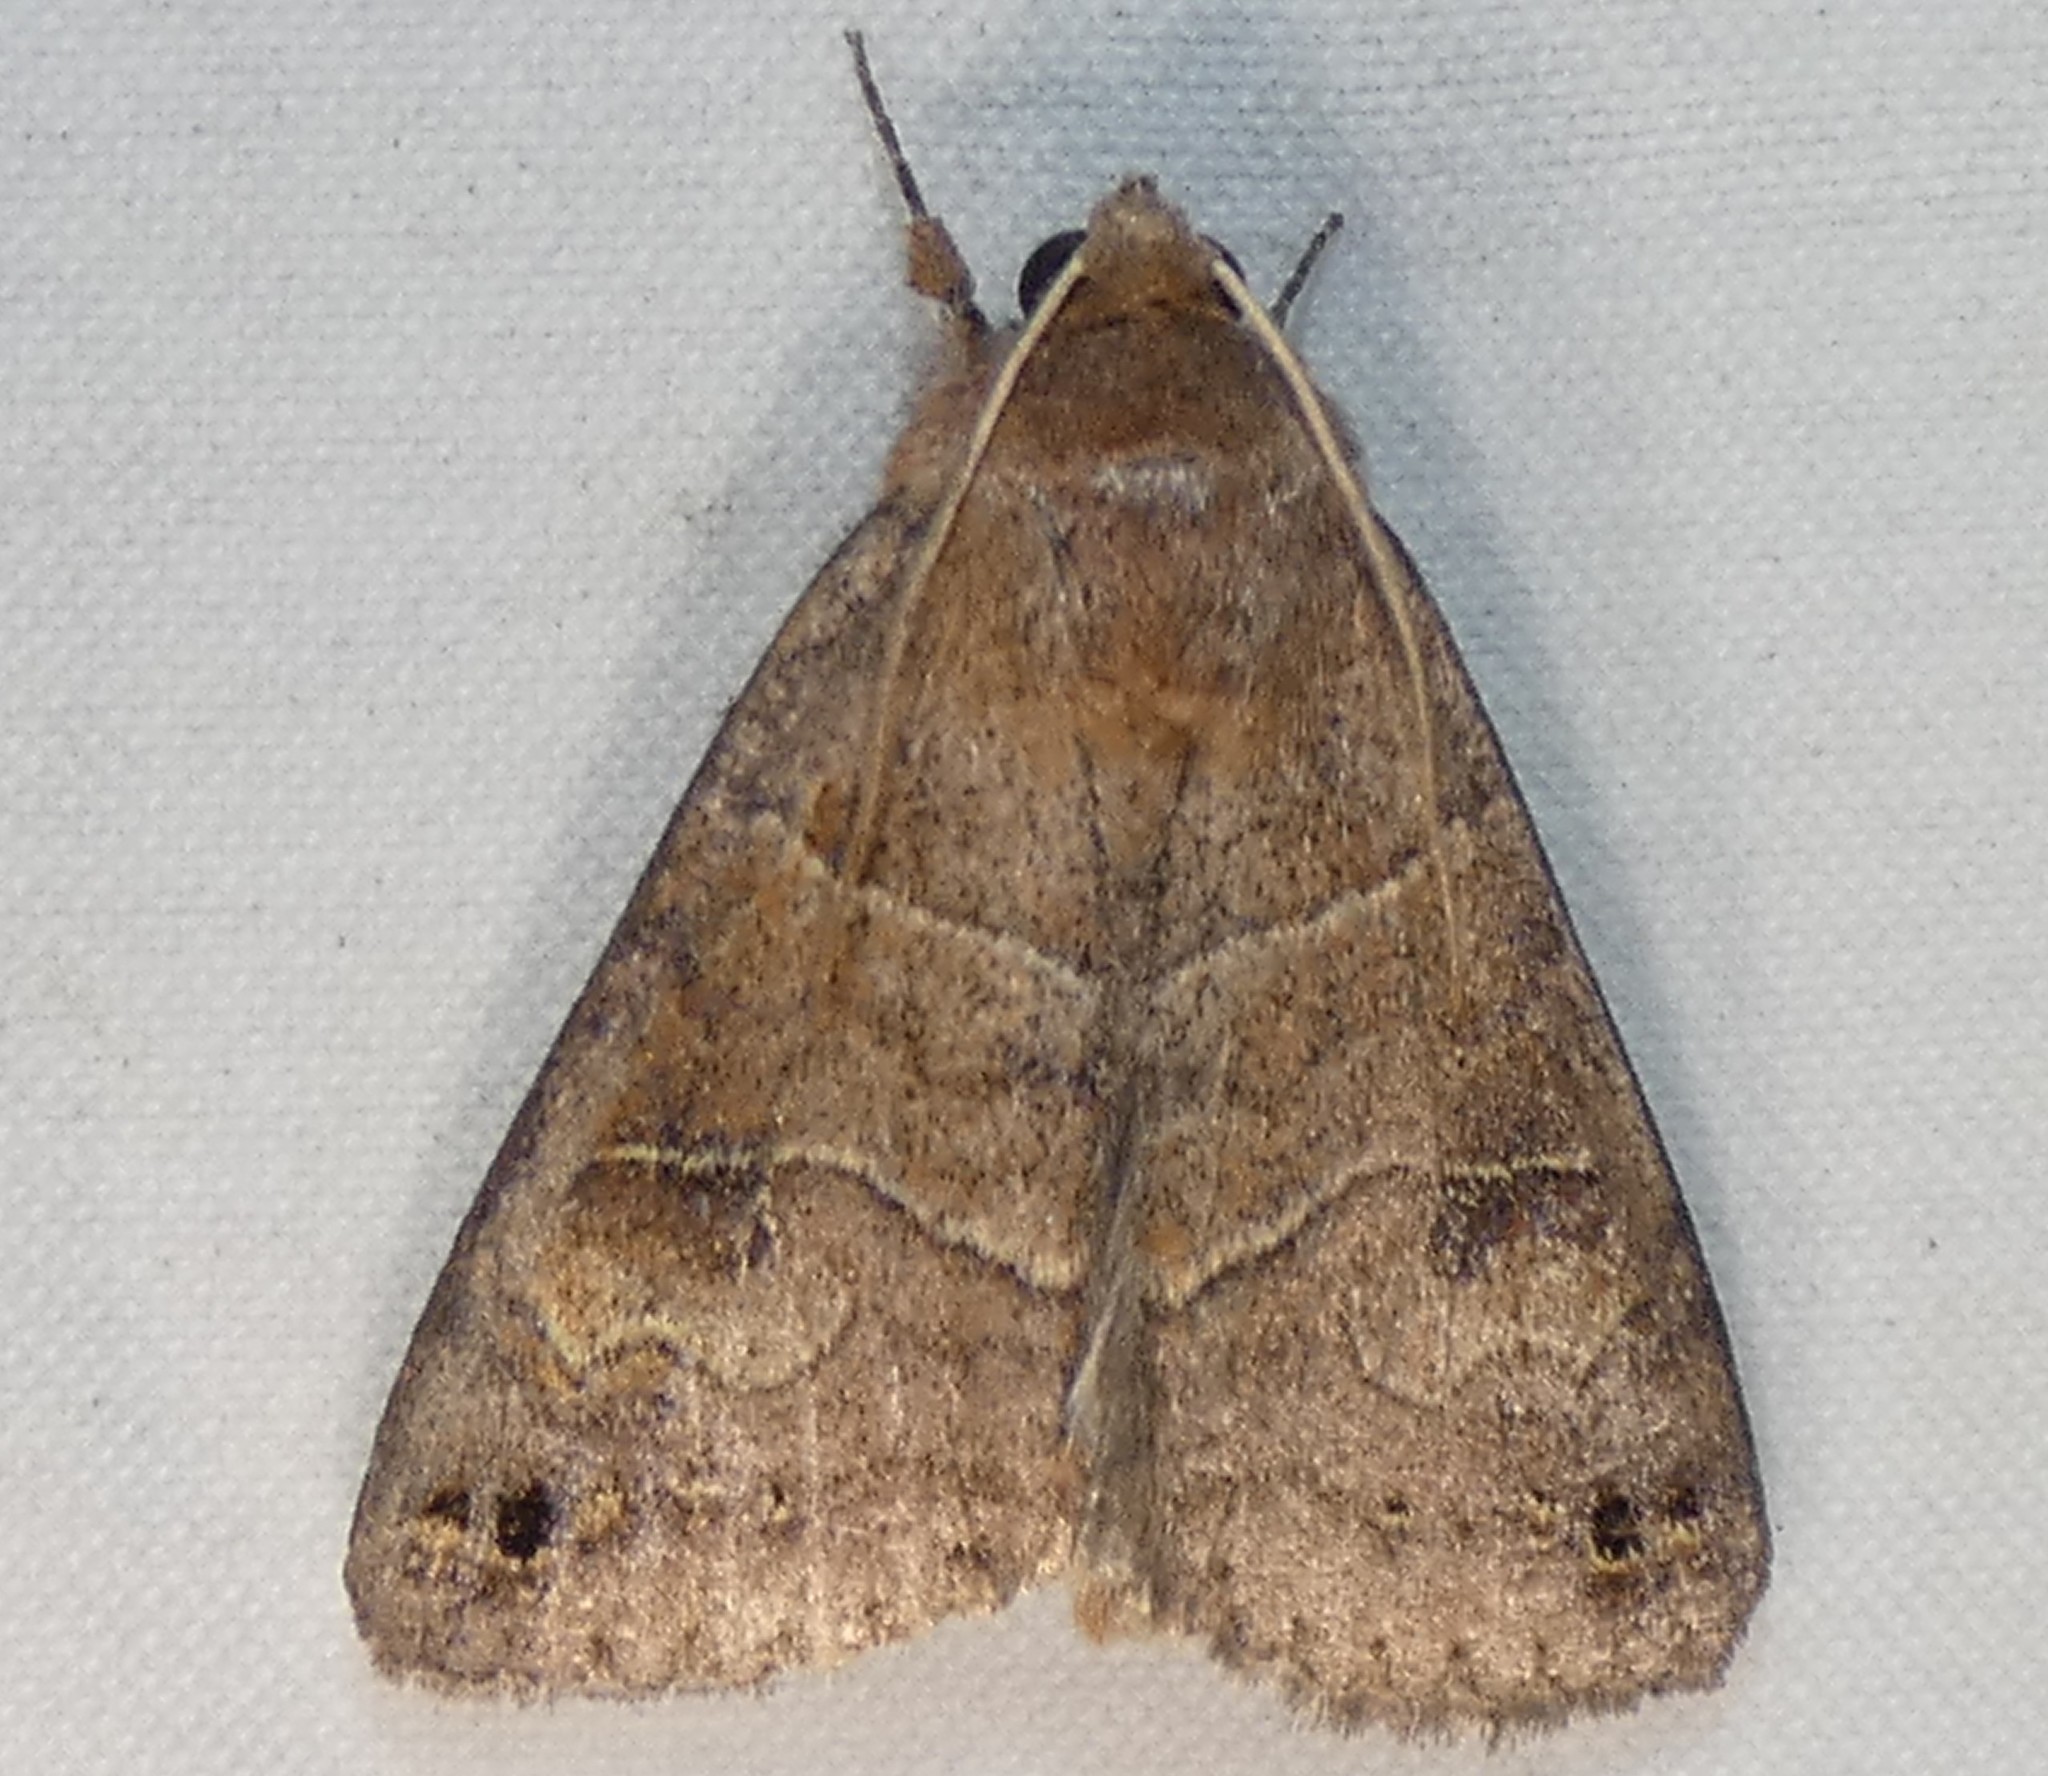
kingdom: Animalia
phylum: Arthropoda
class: Insecta
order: Lepidoptera
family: Erebidae
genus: Cissusa
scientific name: Cissusa spadix
